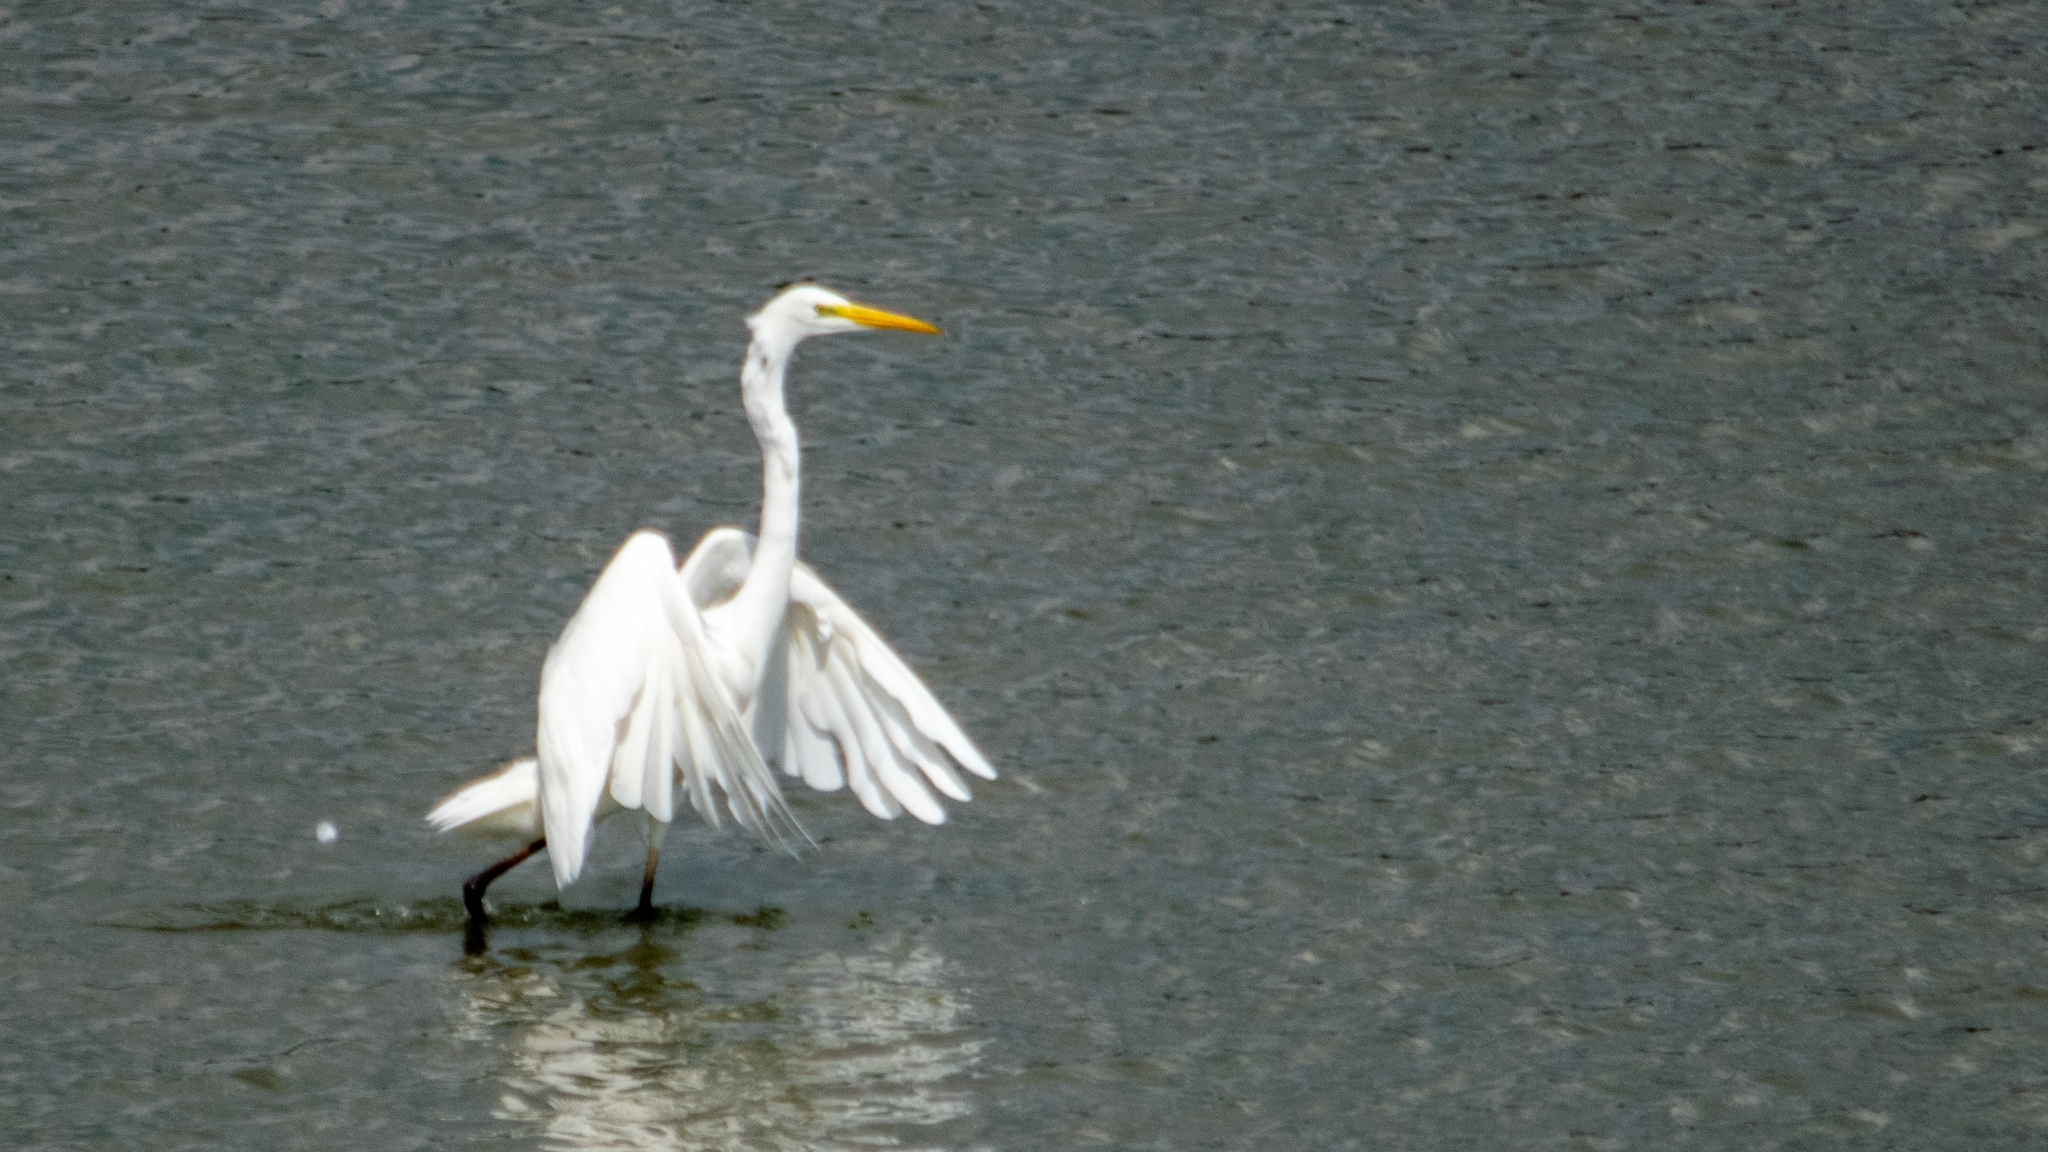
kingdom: Animalia
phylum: Chordata
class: Aves
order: Pelecaniformes
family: Ardeidae
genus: Ardea
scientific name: Ardea alba
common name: Great egret
